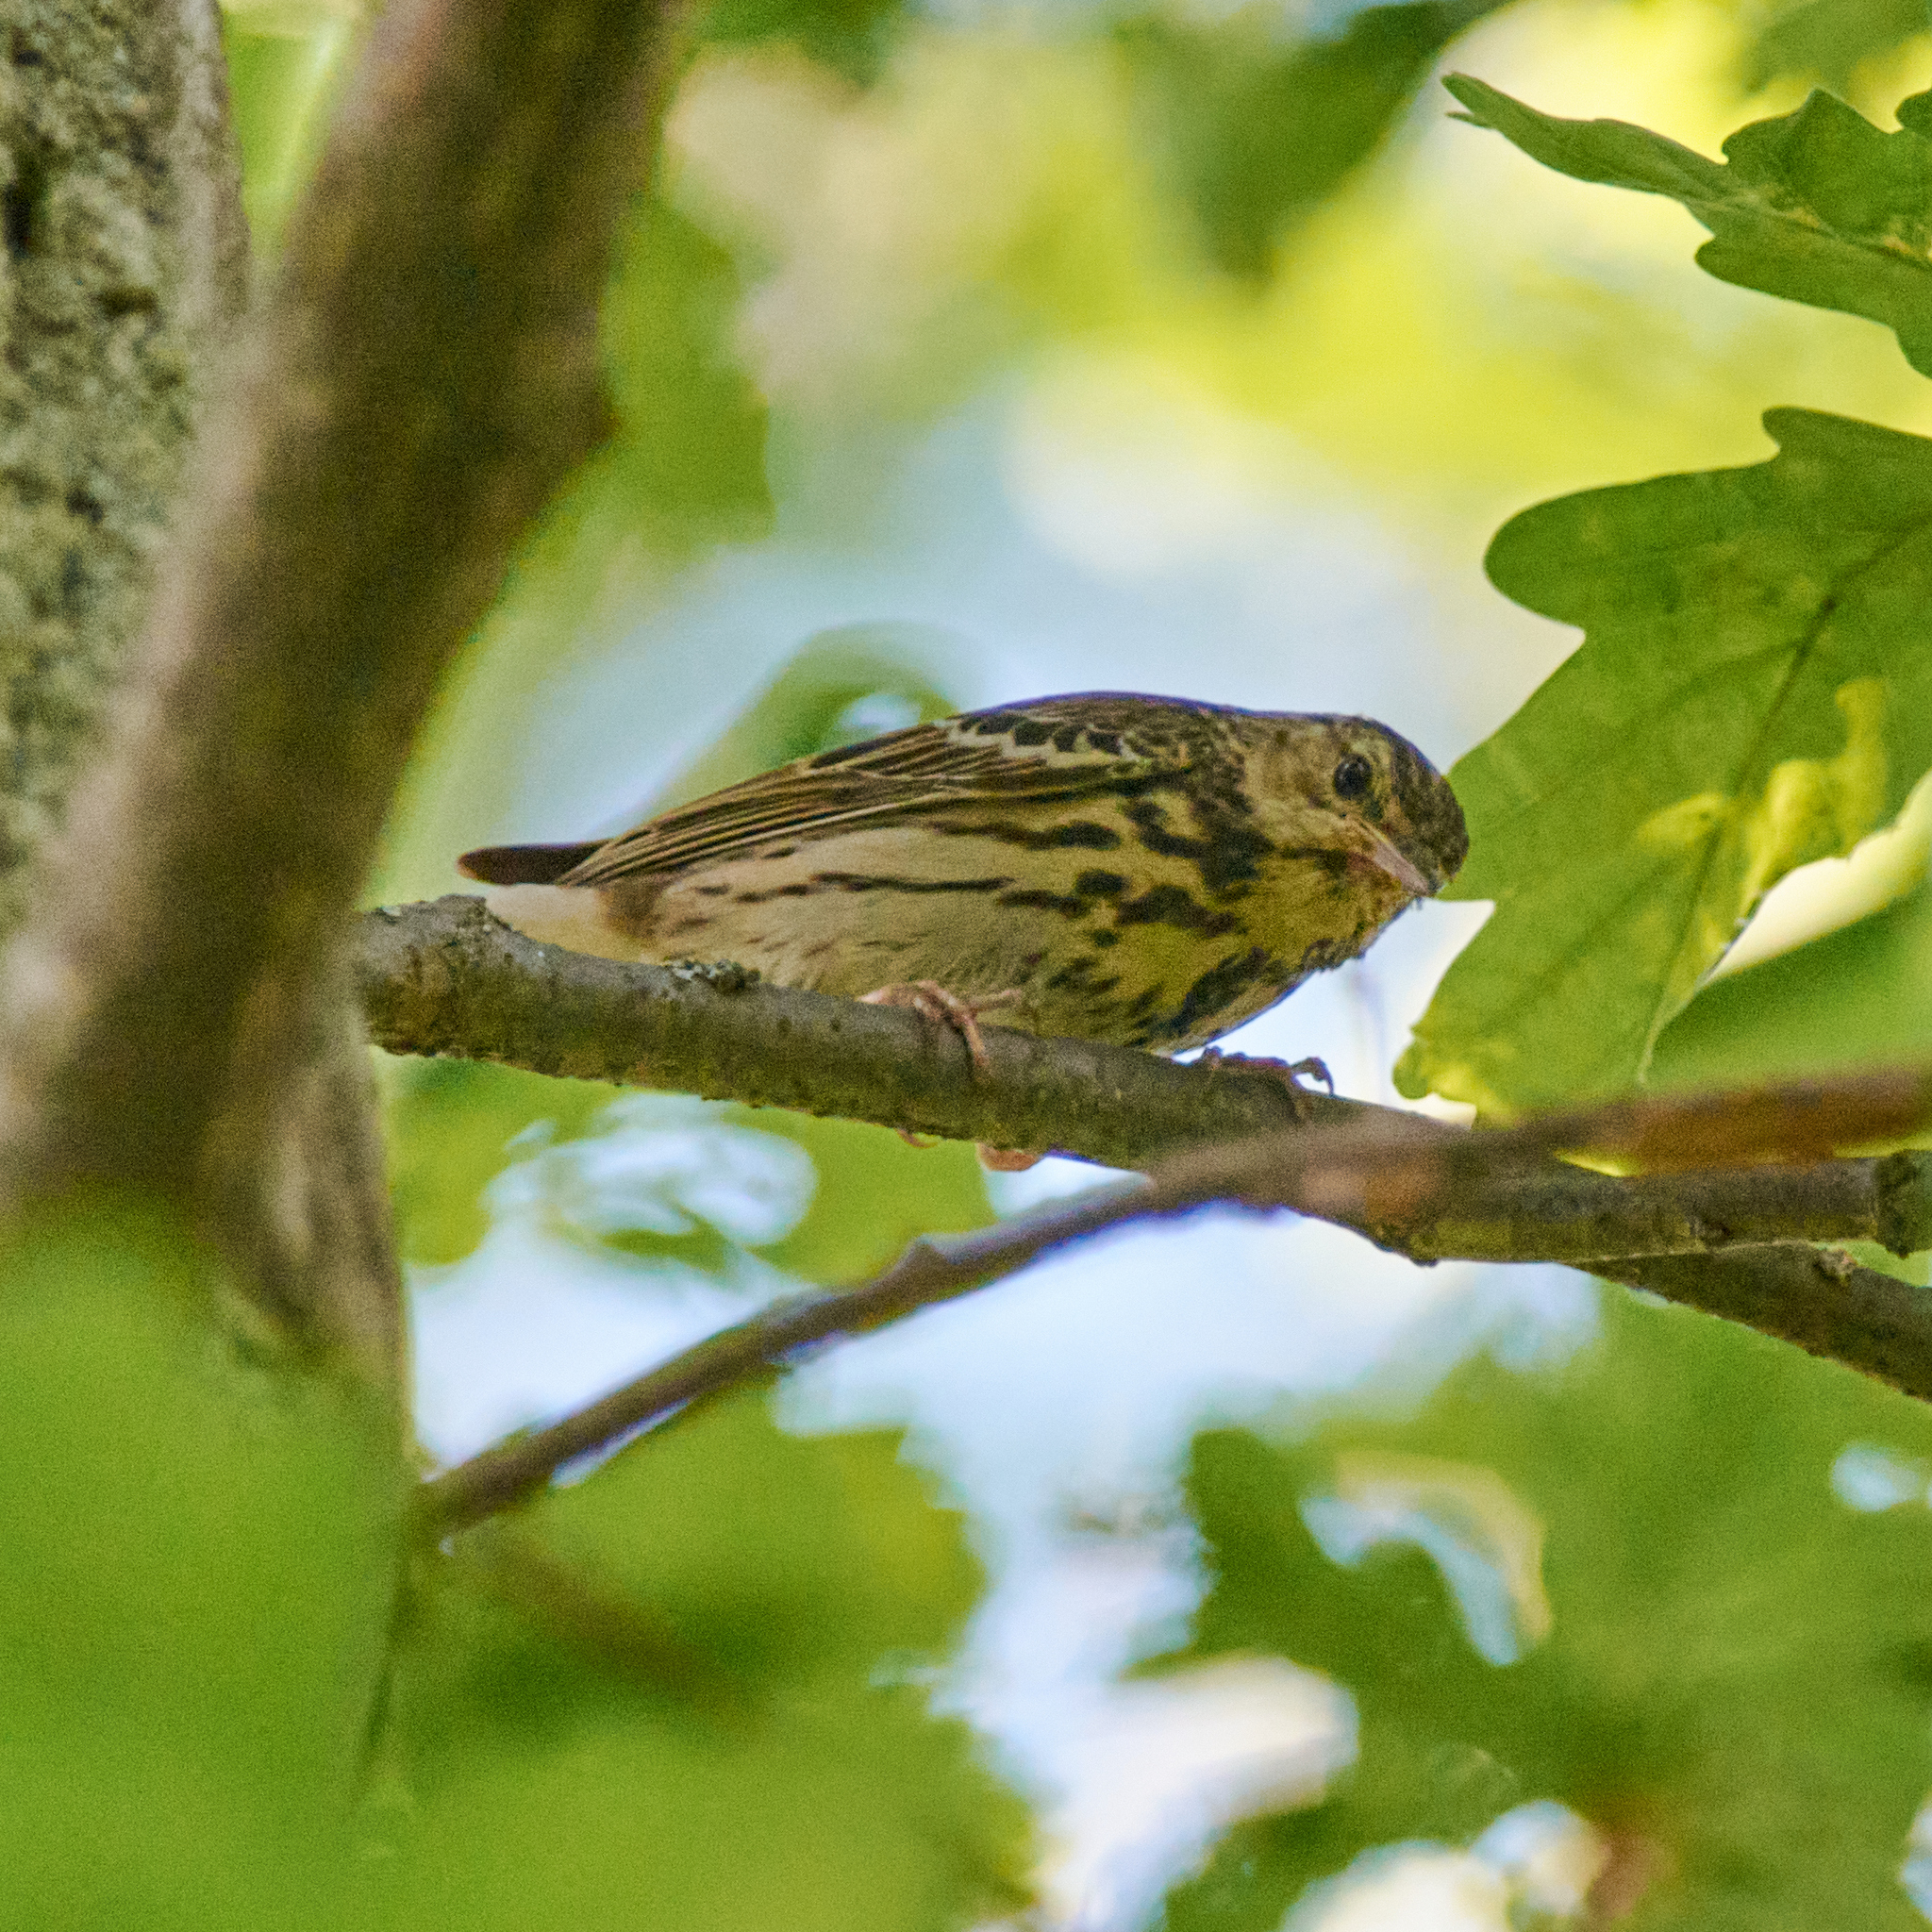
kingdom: Animalia
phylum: Chordata
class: Aves
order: Passeriformes
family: Motacillidae
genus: Anthus
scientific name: Anthus trivialis
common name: Tree pipit
